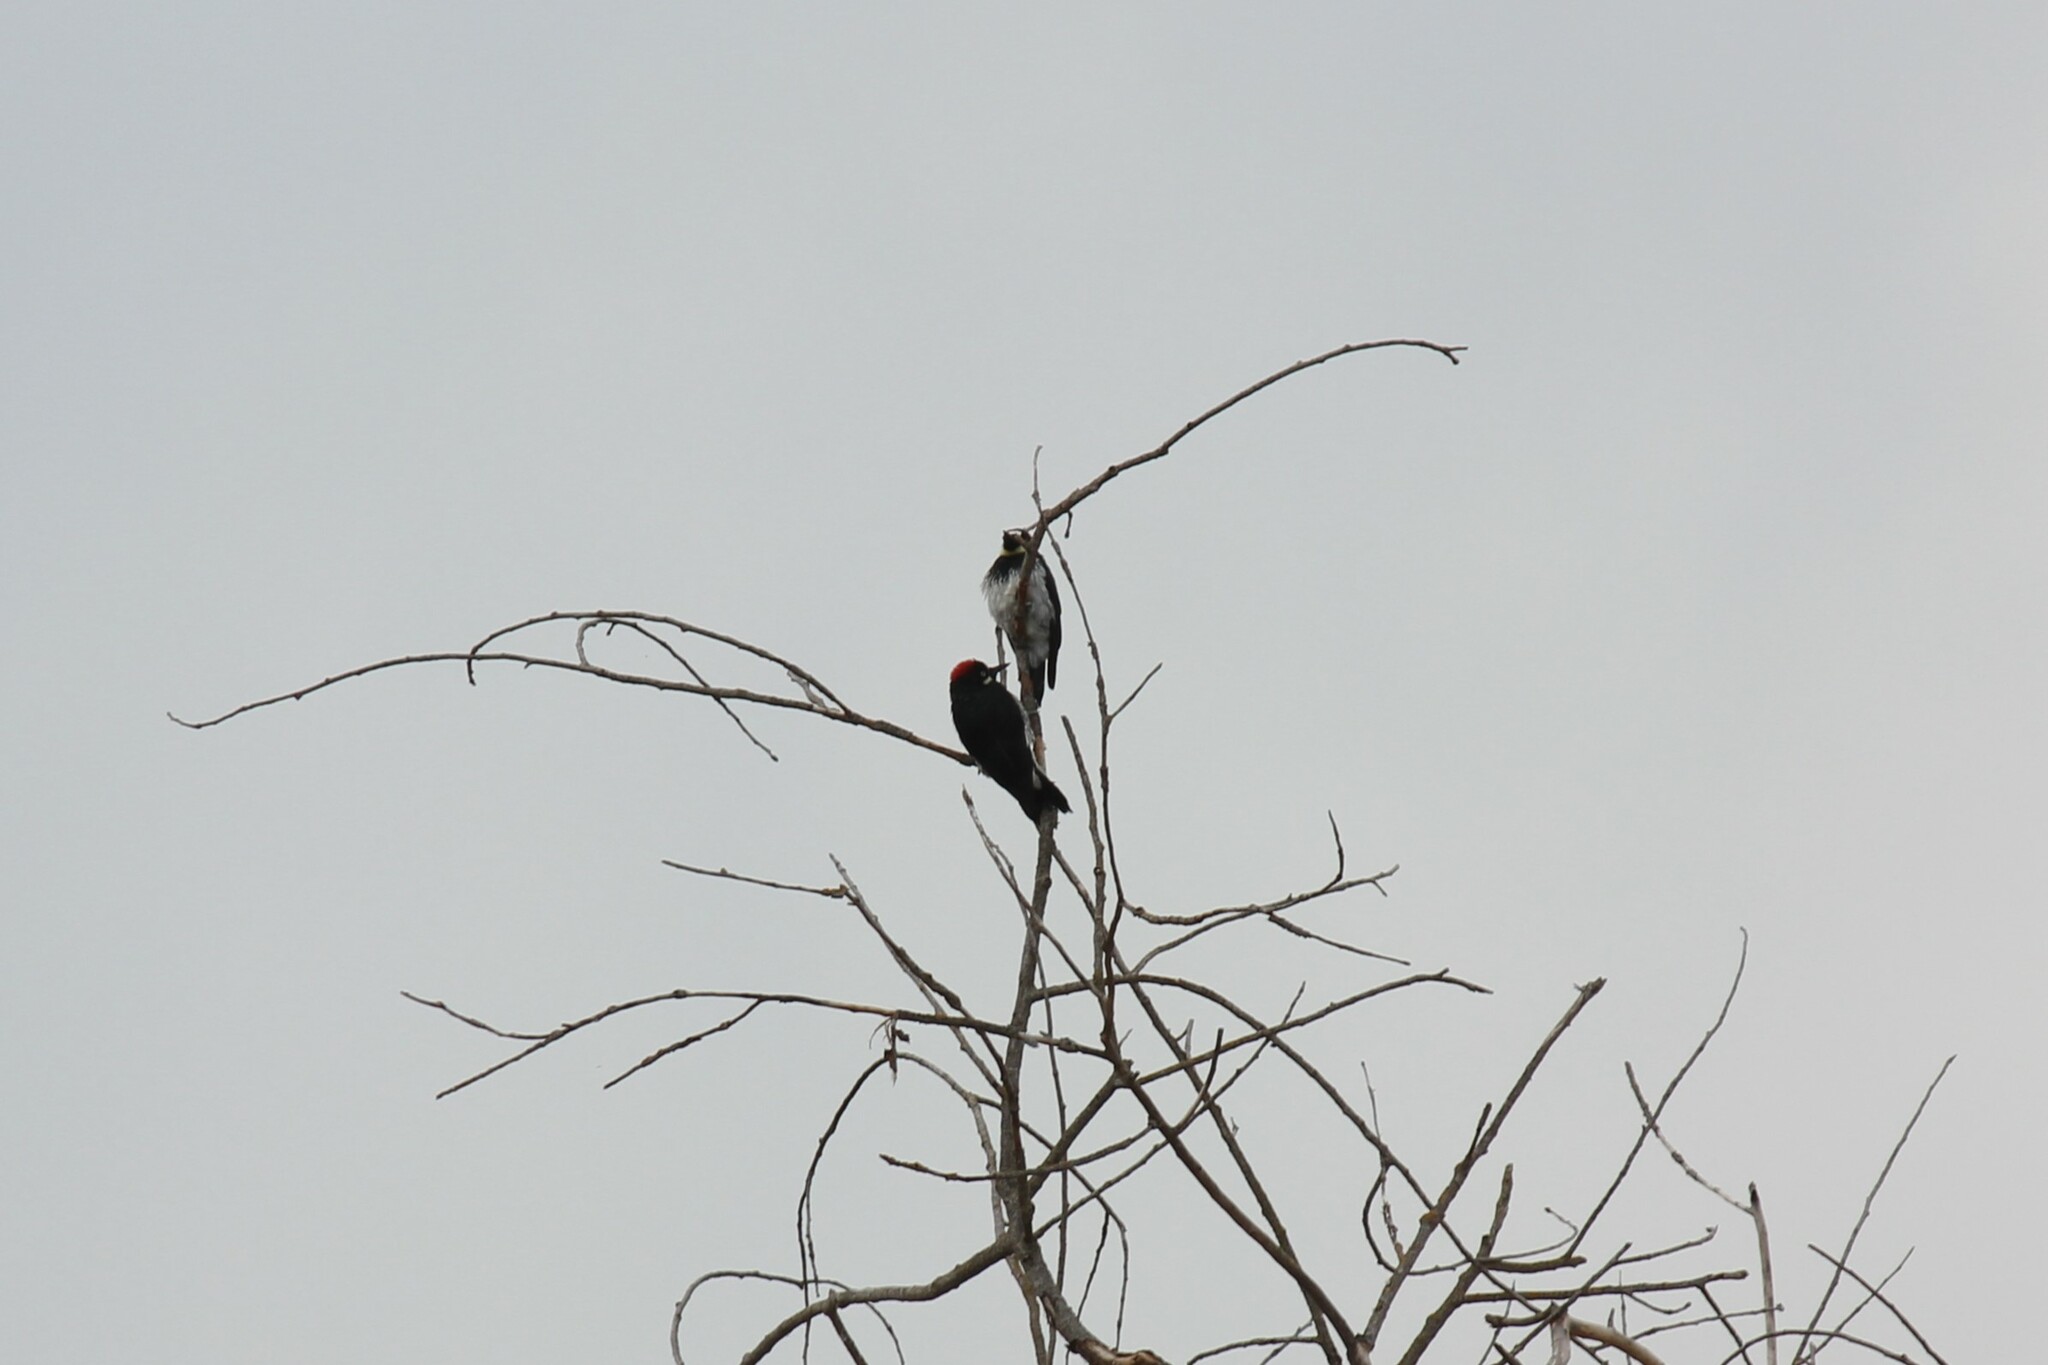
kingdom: Animalia
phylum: Chordata
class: Aves
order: Piciformes
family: Picidae
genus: Melanerpes
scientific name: Melanerpes formicivorus
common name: Acorn woodpecker
